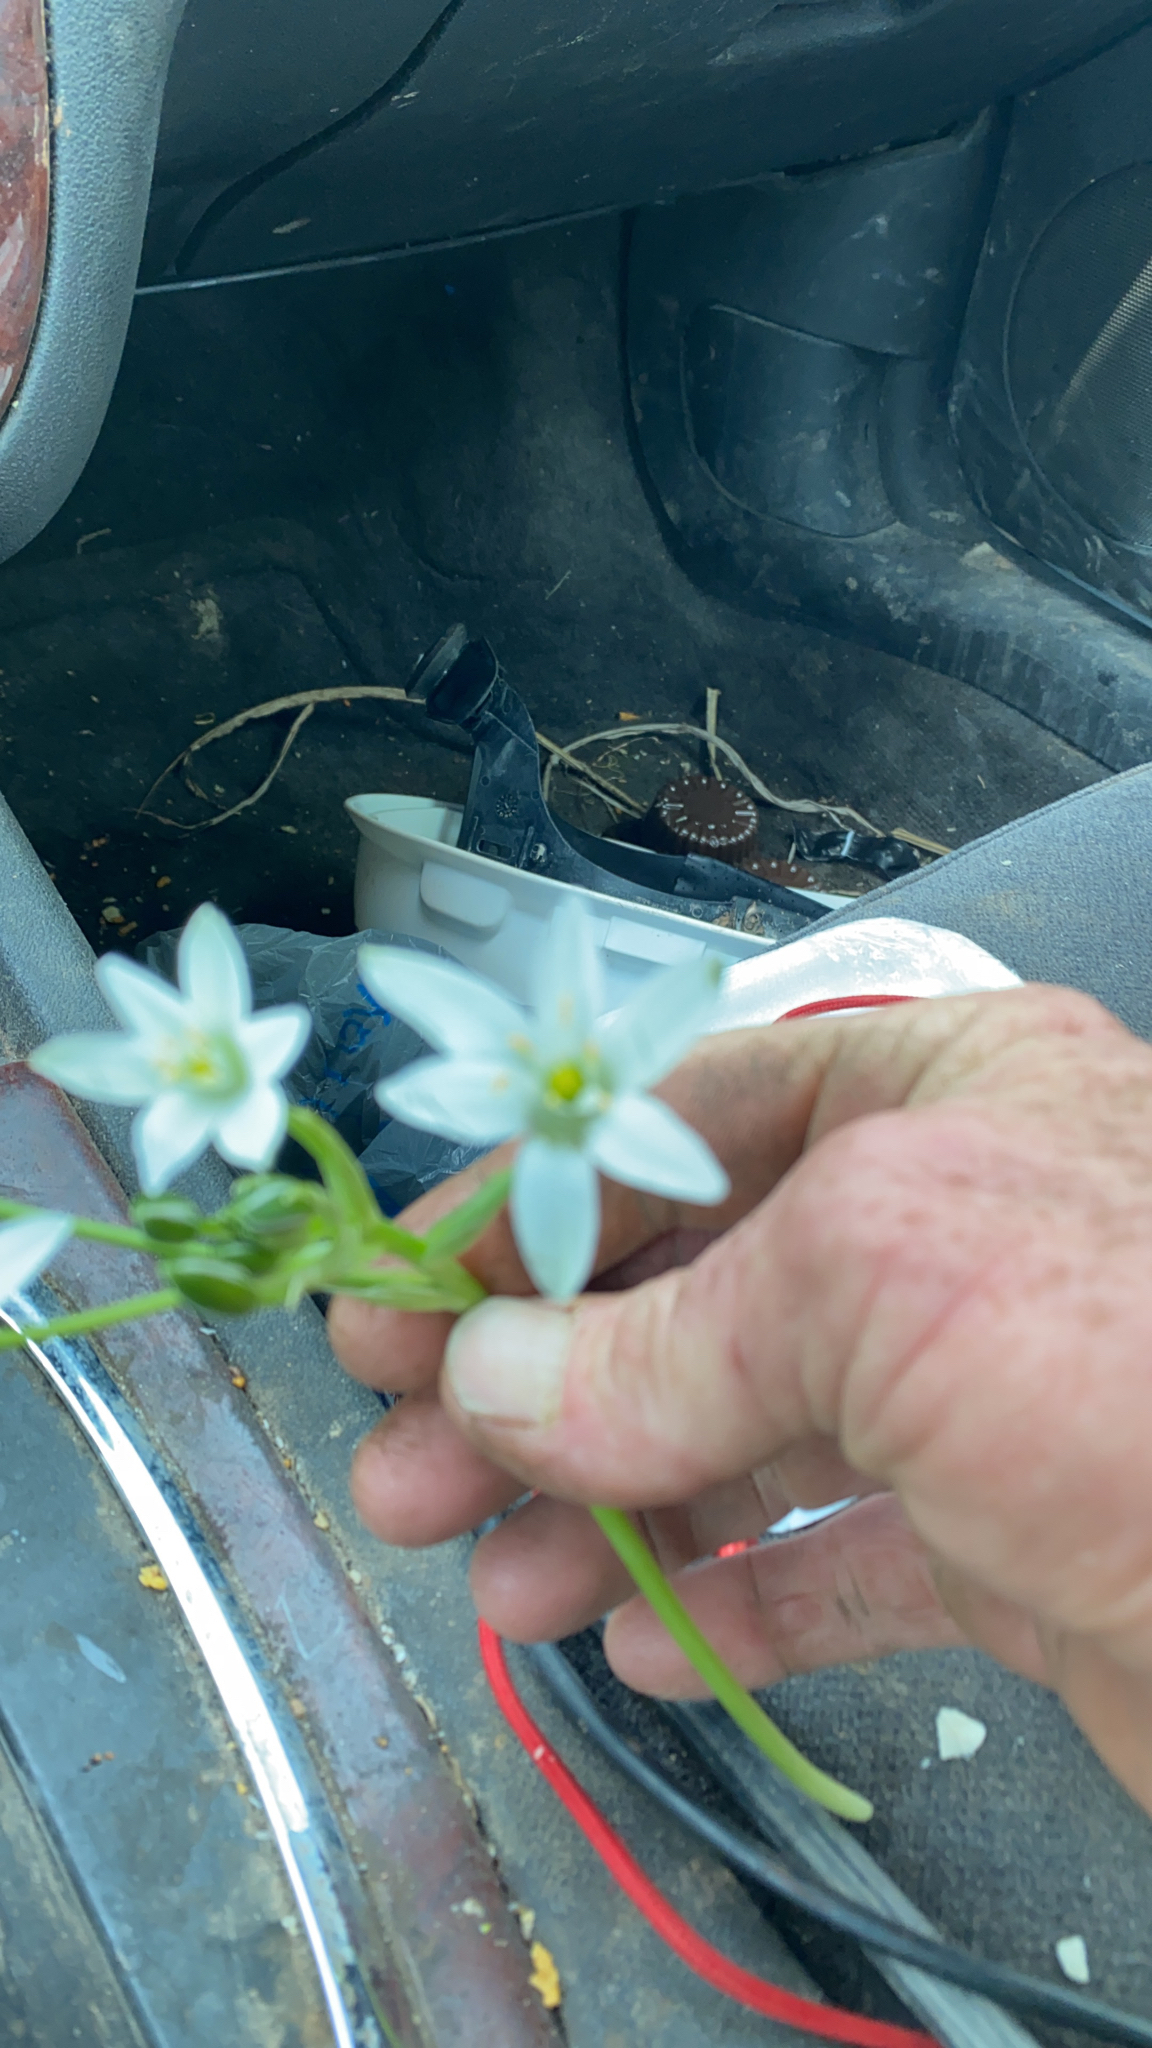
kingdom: Plantae
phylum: Tracheophyta
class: Liliopsida
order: Asparagales
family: Asparagaceae
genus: Ornithogalum
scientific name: Ornithogalum umbellatum
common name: Garden star-of-bethlehem
